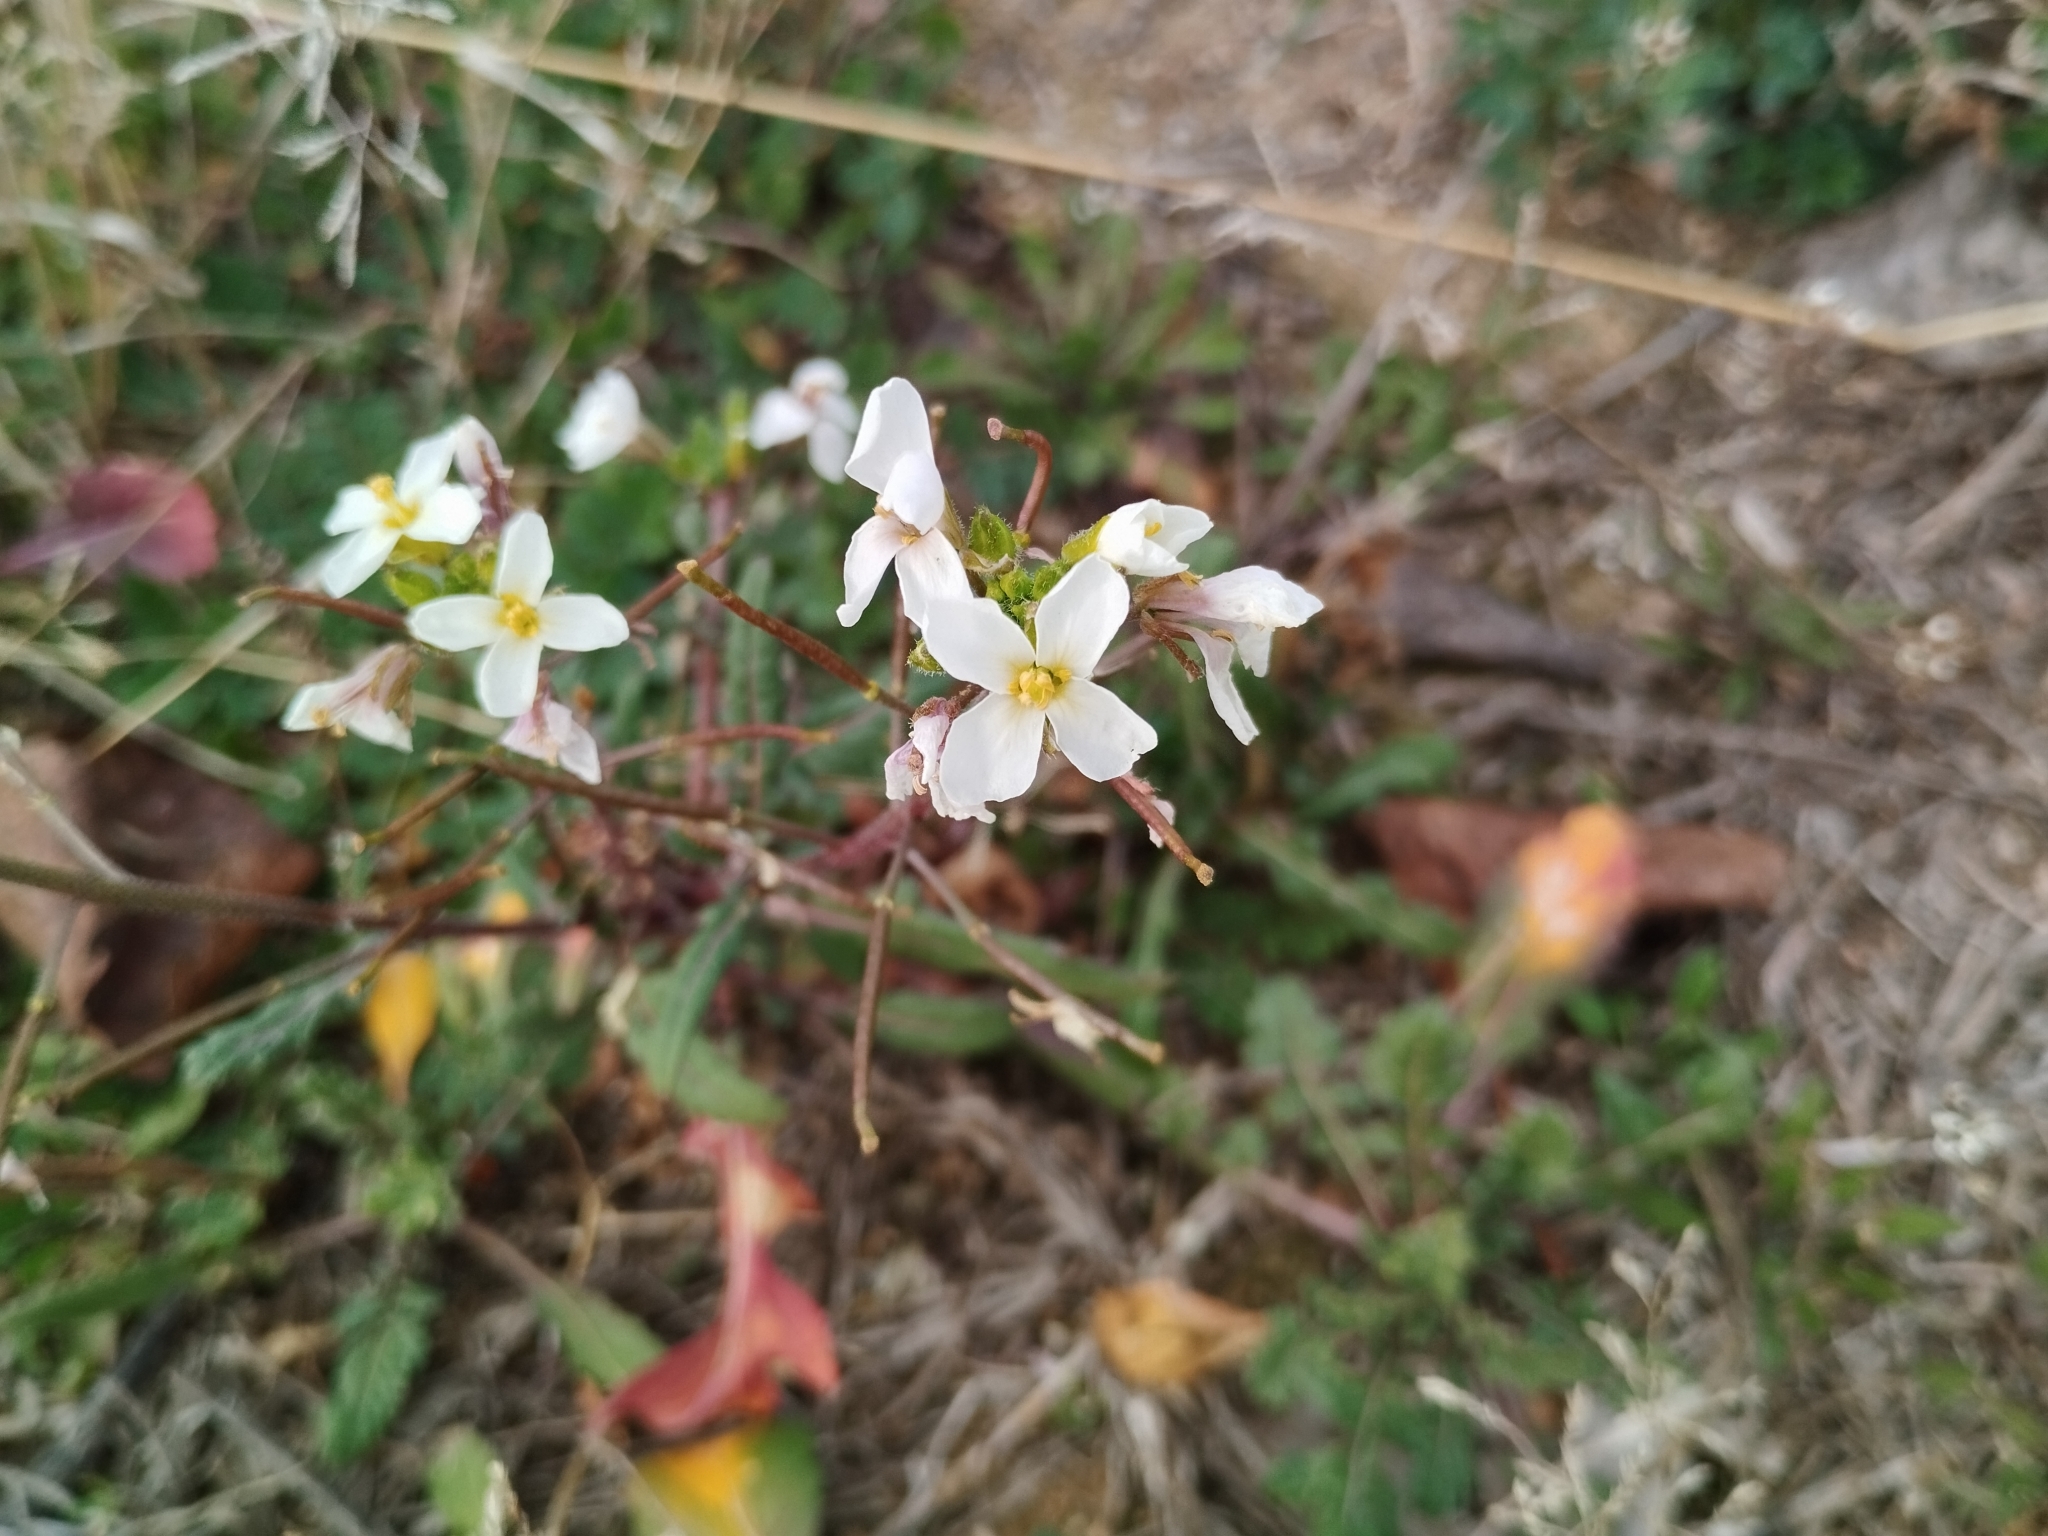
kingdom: Plantae
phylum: Tracheophyta
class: Magnoliopsida
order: Brassicales
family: Brassicaceae
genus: Diplotaxis
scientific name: Diplotaxis erucoides
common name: White rocket
